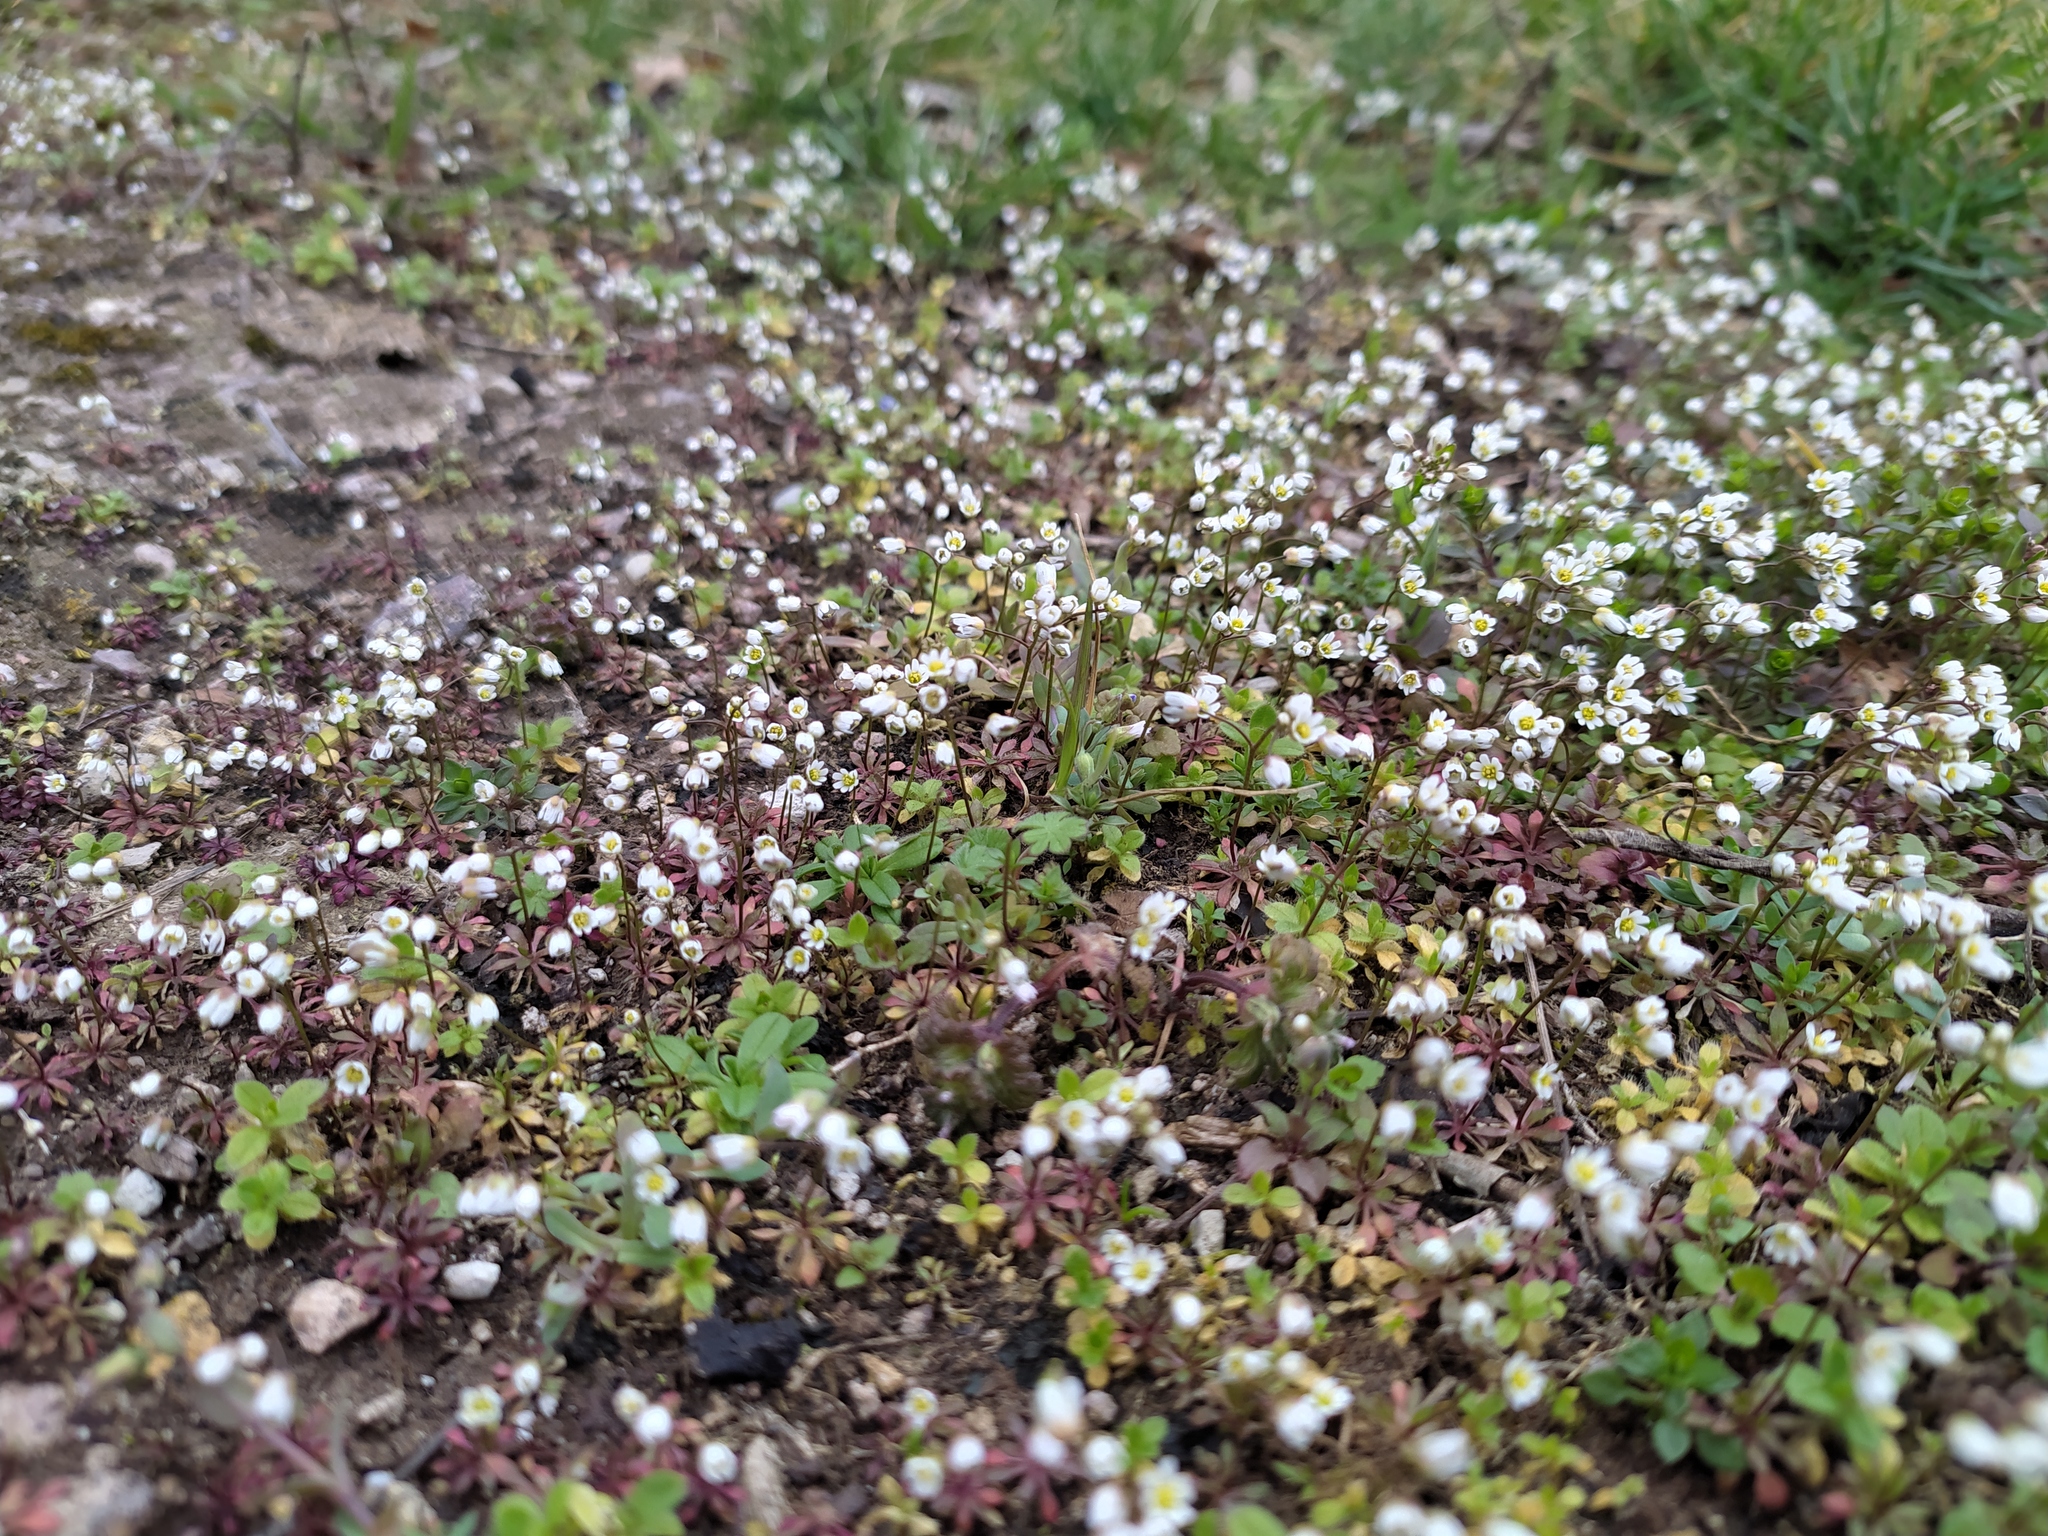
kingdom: Plantae
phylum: Tracheophyta
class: Magnoliopsida
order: Brassicales
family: Brassicaceae
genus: Draba
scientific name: Draba verna
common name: Spring draba
